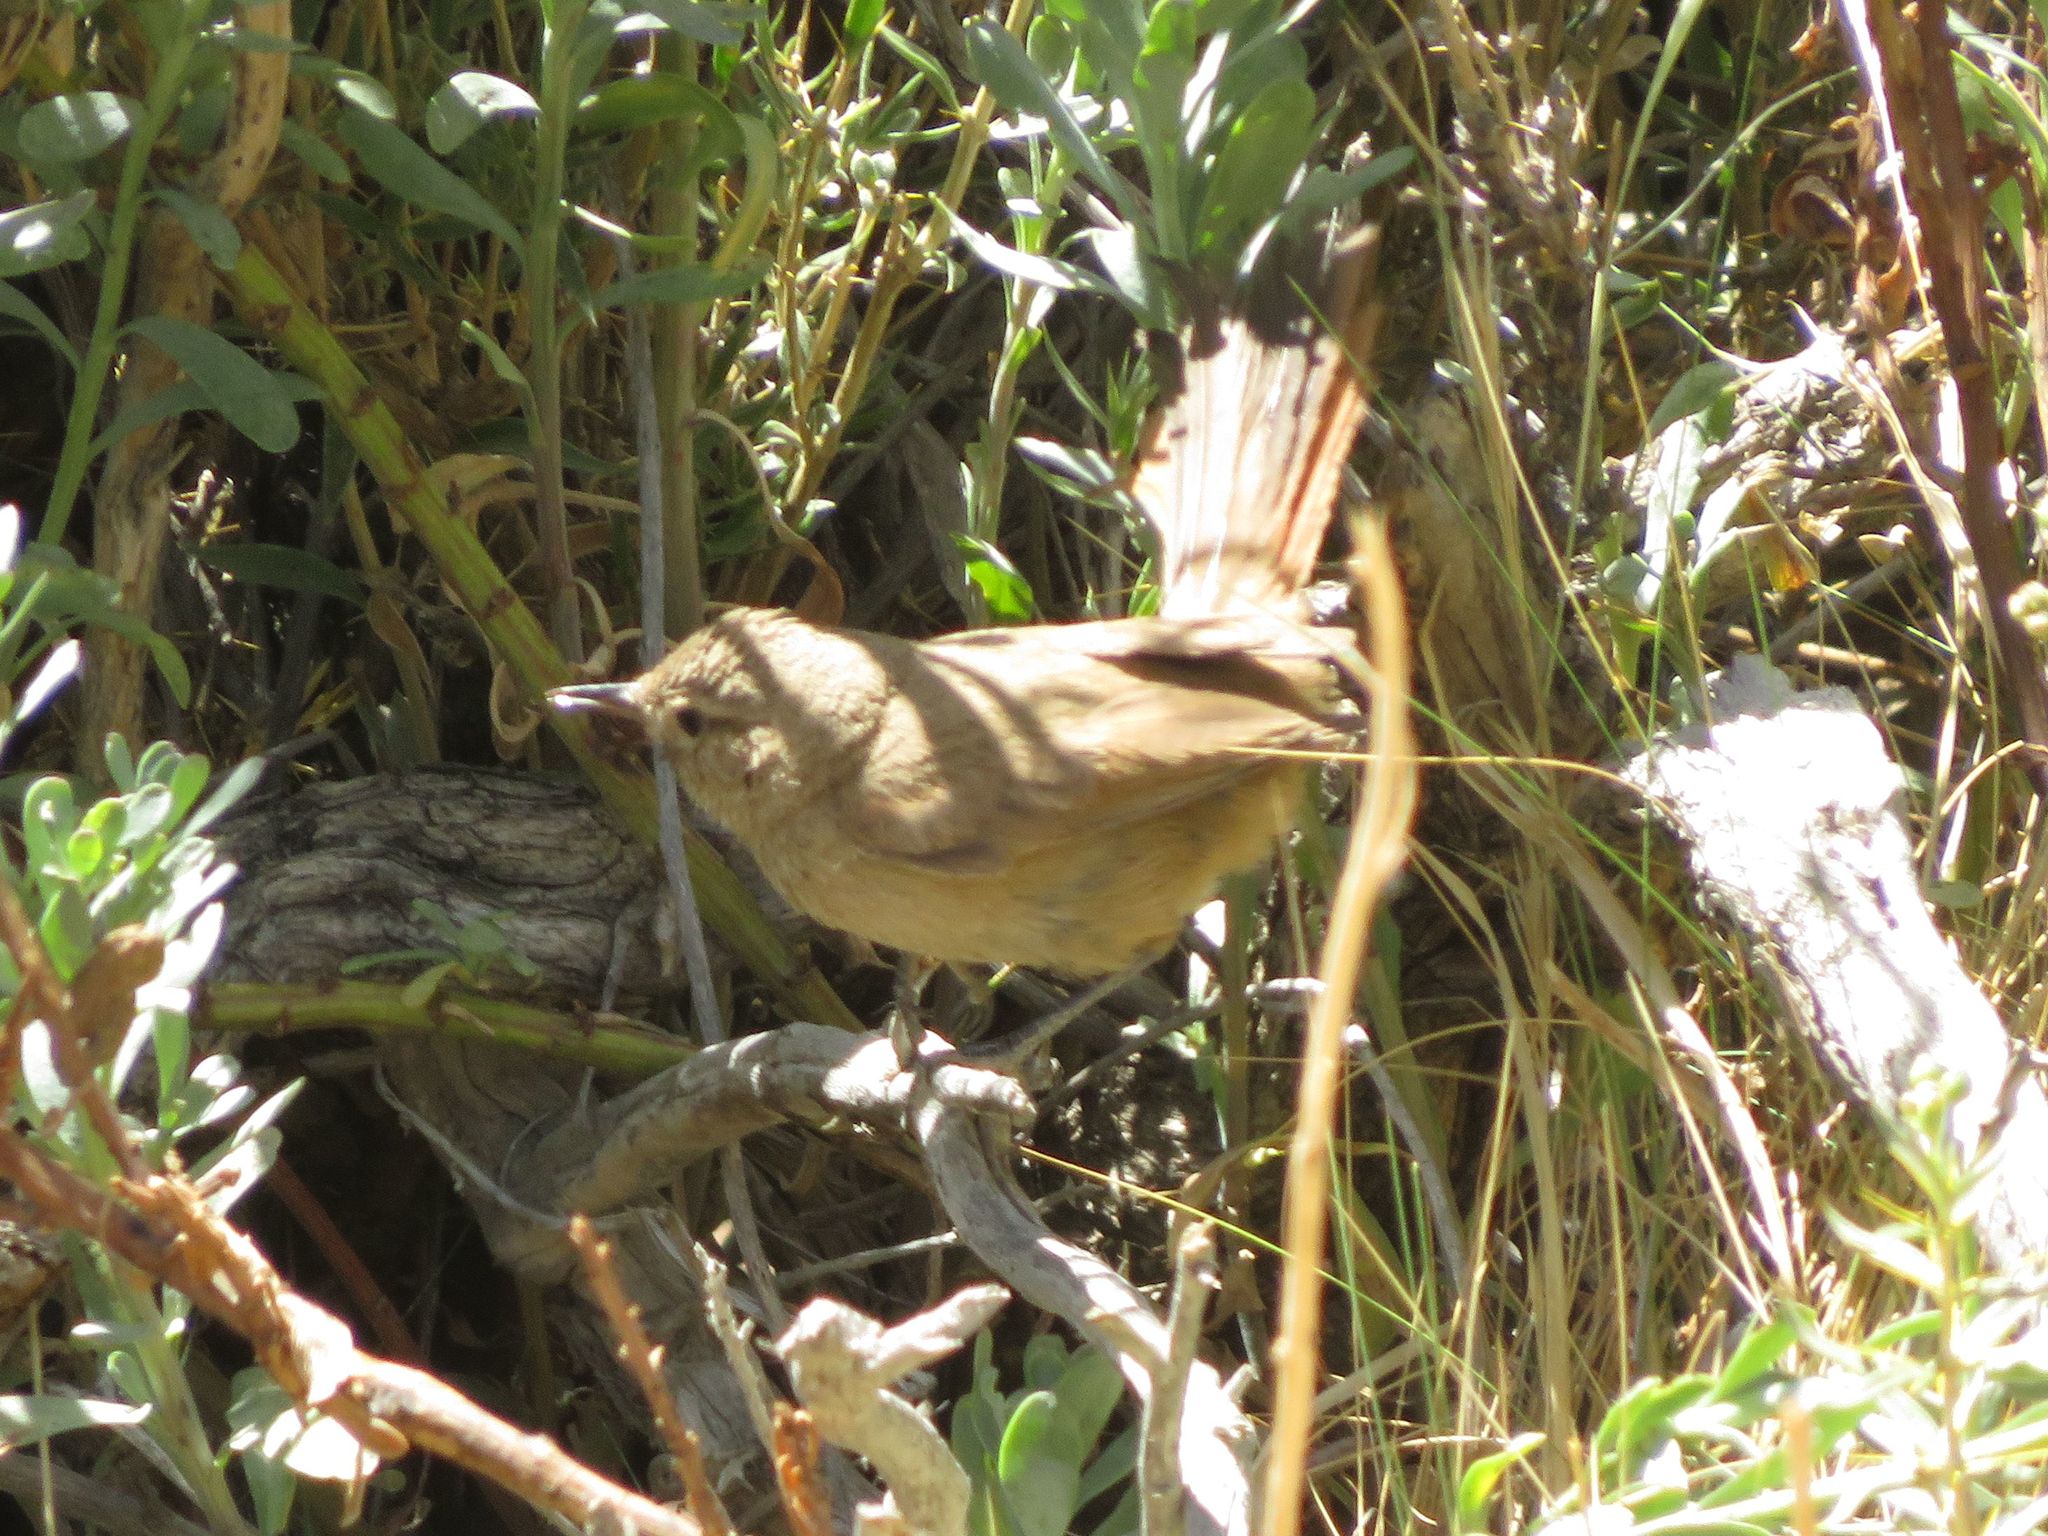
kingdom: Animalia
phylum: Chordata
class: Aves
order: Passeriformes
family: Furnariidae
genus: Asthenes
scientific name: Asthenes pyrrholeuca
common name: Sharp-billed canastero
